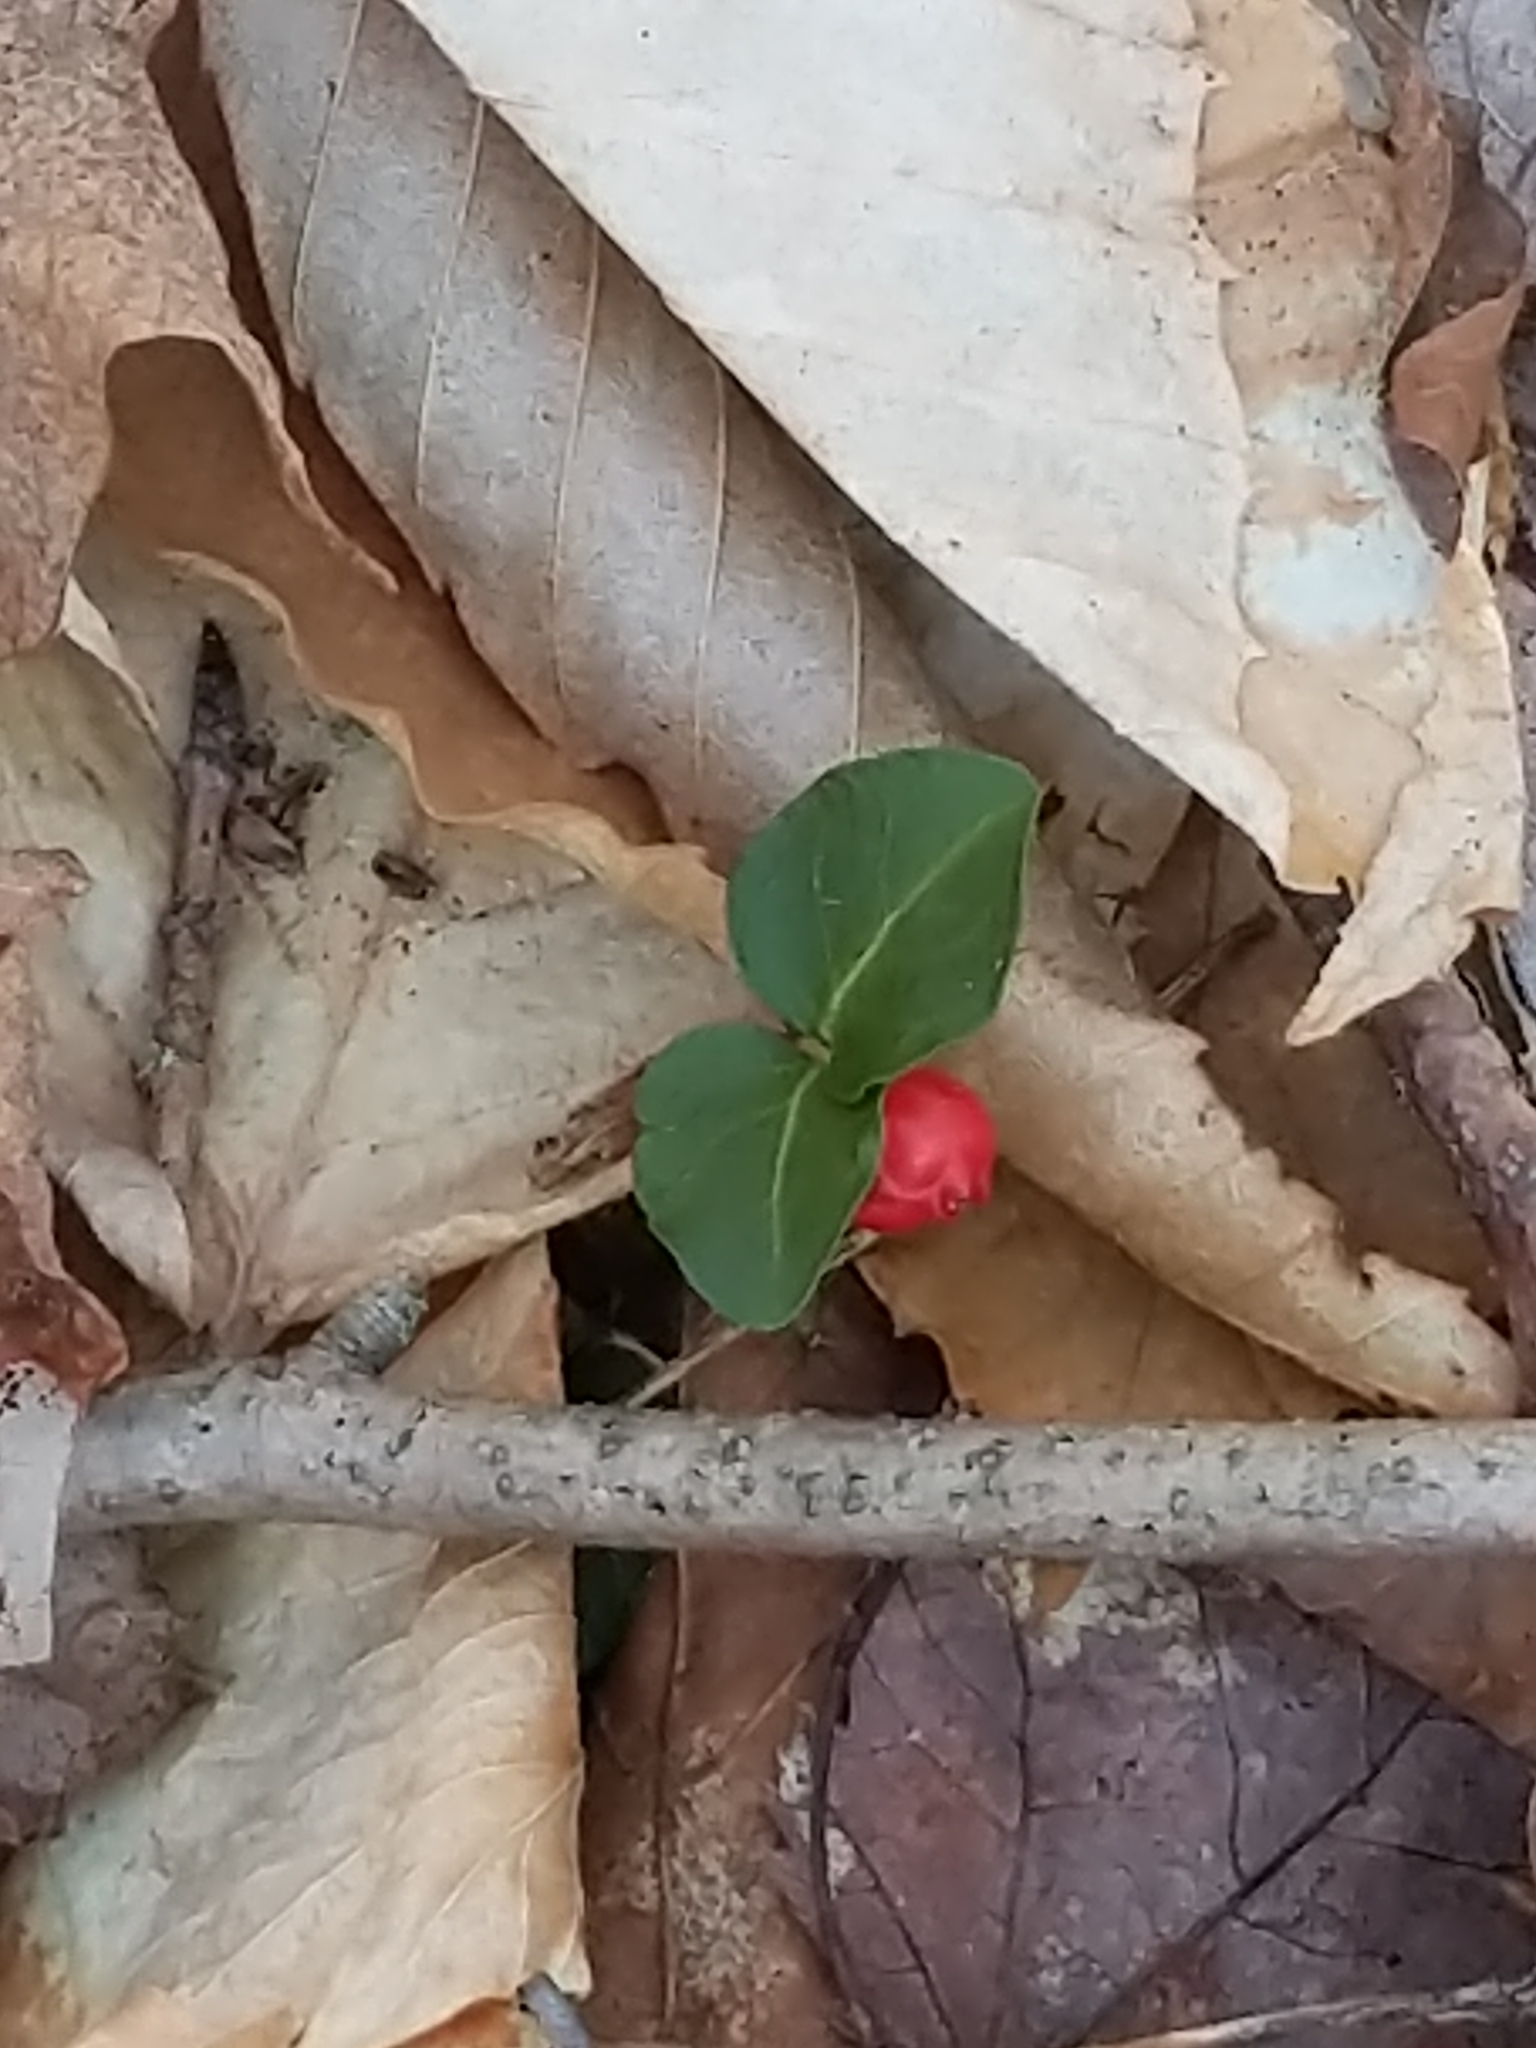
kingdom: Plantae
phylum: Tracheophyta
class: Magnoliopsida
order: Gentianales
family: Rubiaceae
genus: Mitchella
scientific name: Mitchella repens
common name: Partridge-berry
